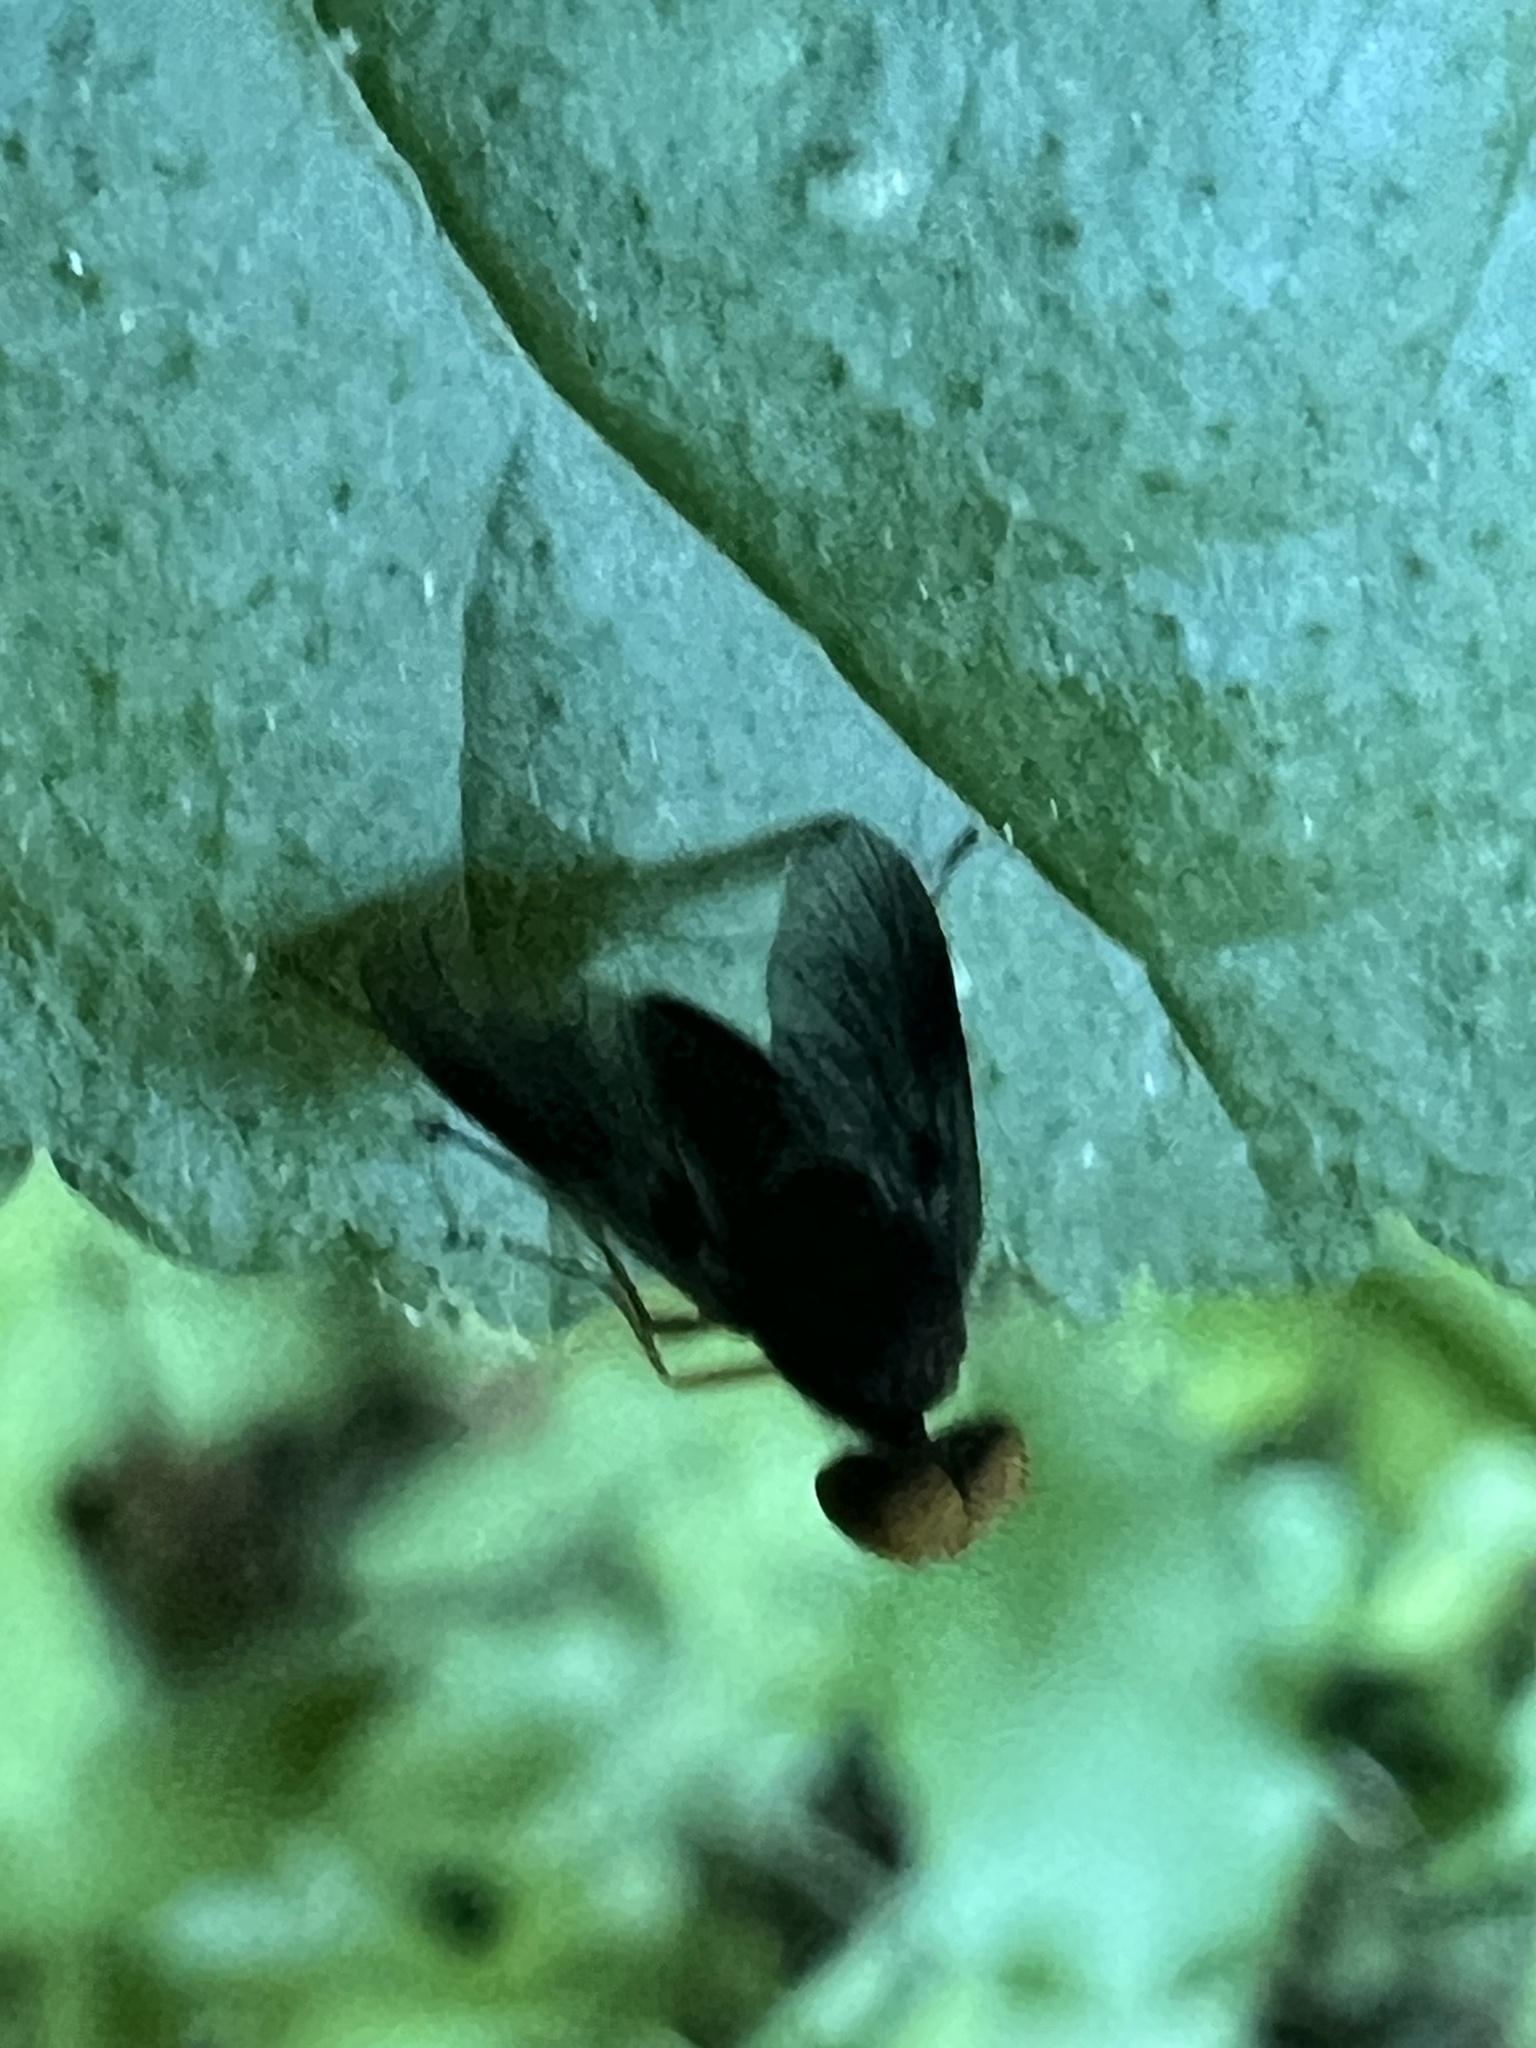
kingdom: Animalia
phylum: Arthropoda
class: Insecta
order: Diptera
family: Rhagionidae
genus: Chrysopilus
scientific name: Chrysopilus quadratus
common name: Quadrate snipe fly
